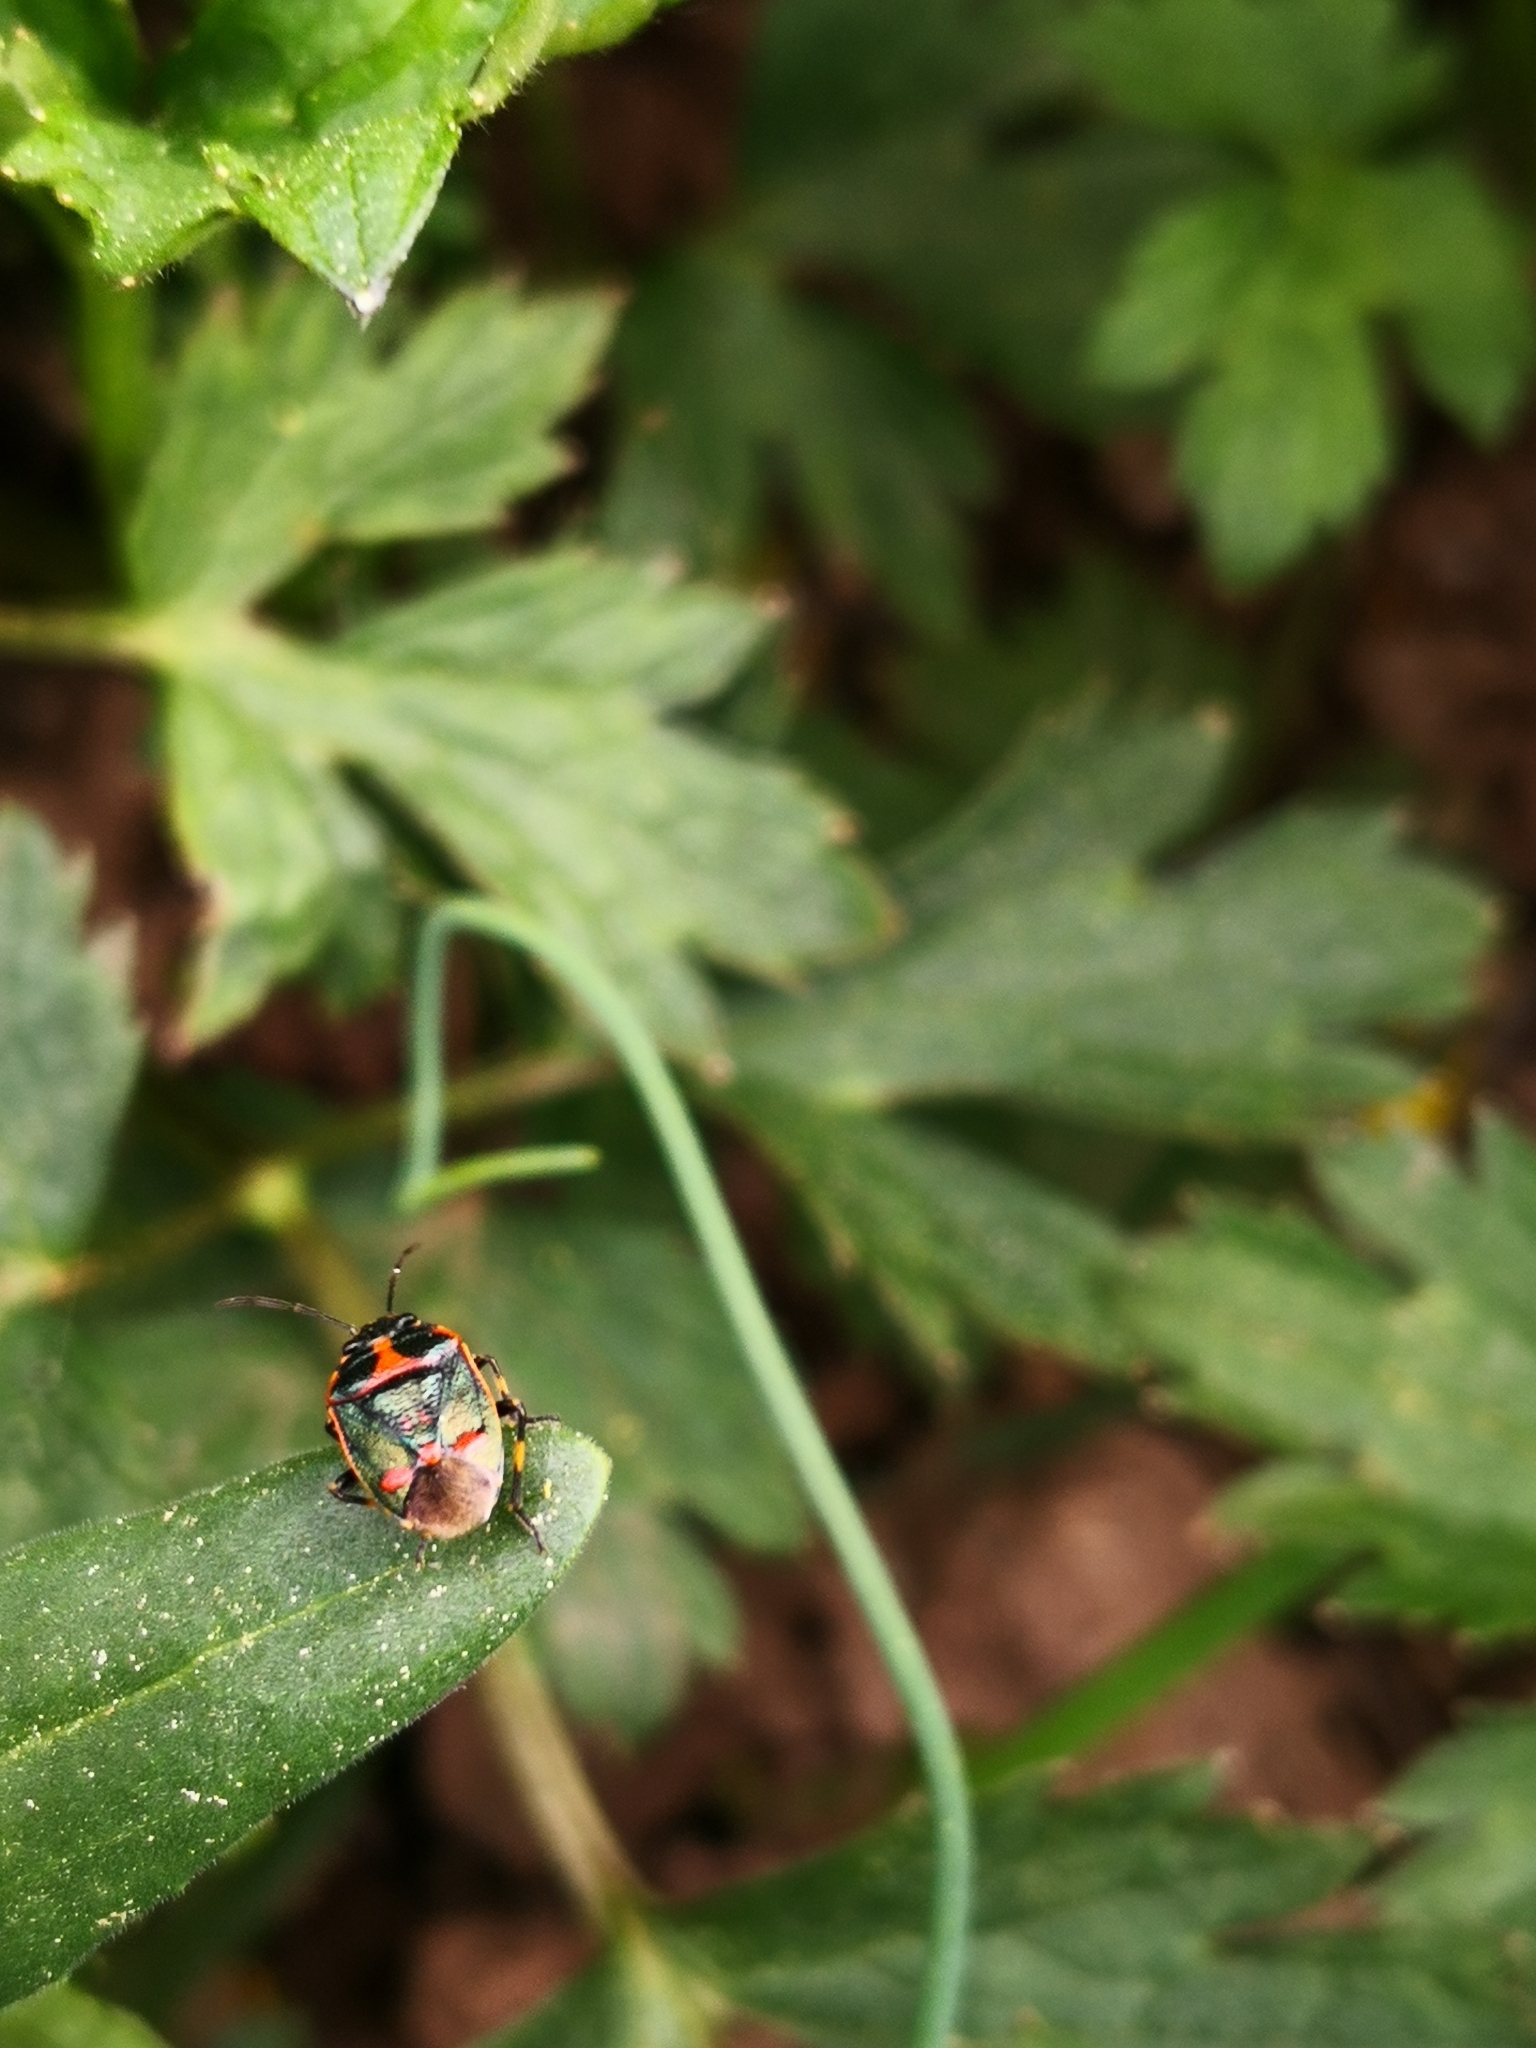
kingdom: Animalia
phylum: Arthropoda
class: Insecta
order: Hemiptera
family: Pentatomidae
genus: Eurydema
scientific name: Eurydema oleracea
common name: Cabbage bug
